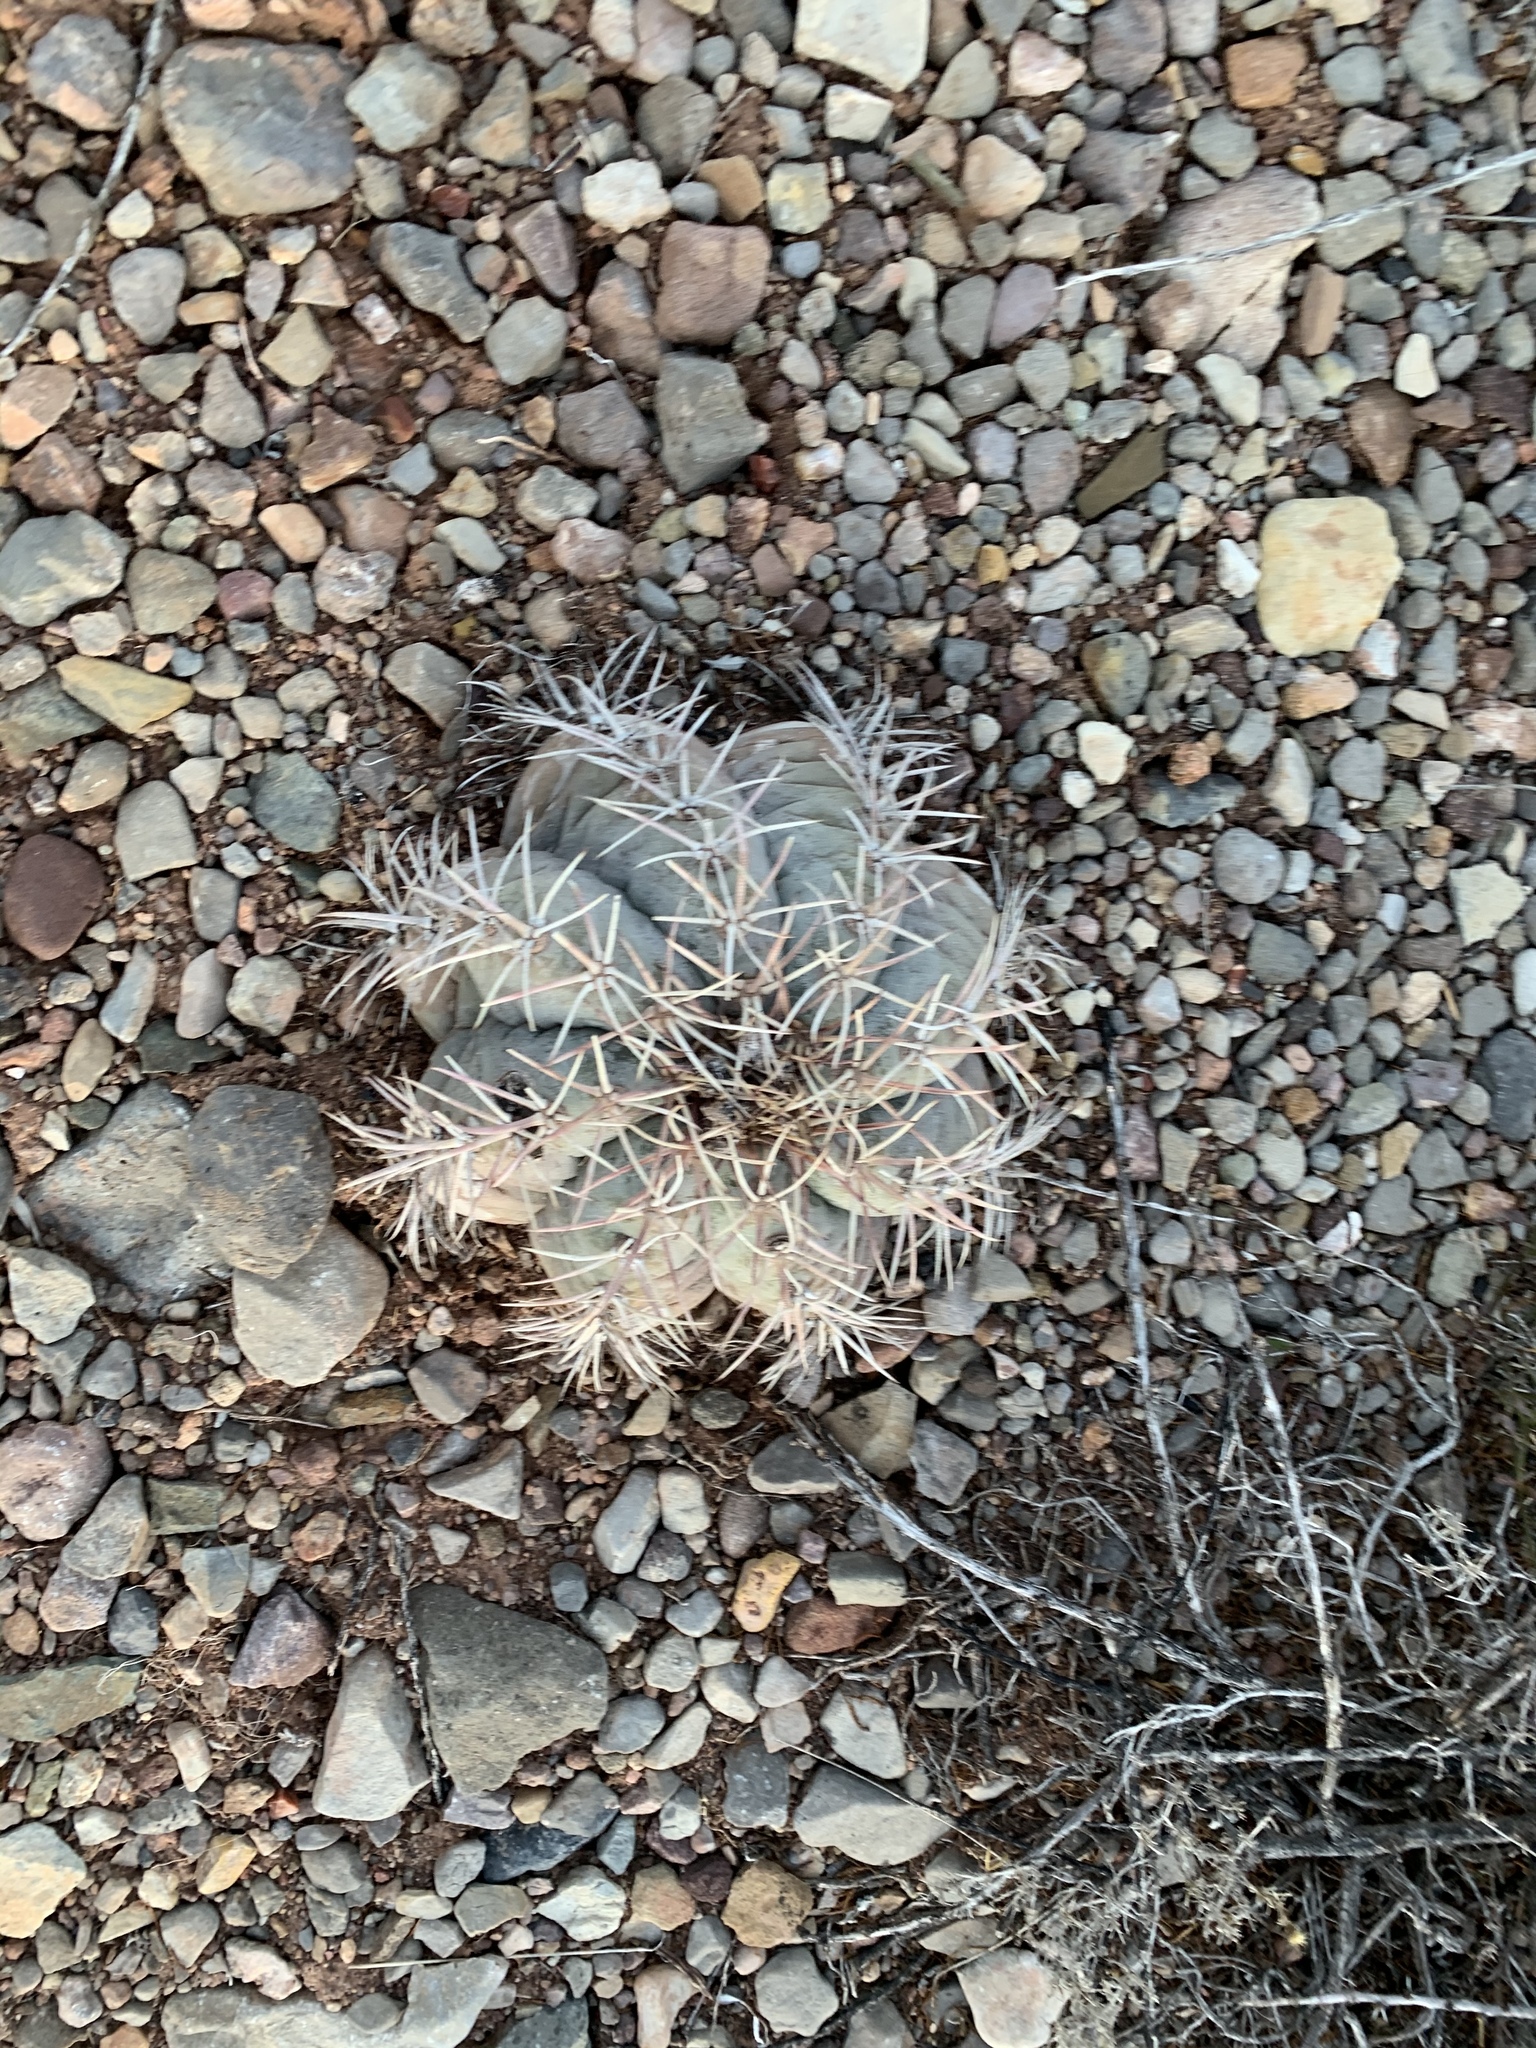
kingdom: Plantae
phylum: Tracheophyta
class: Magnoliopsida
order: Caryophyllales
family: Cactaceae
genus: Echinocactus
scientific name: Echinocactus horizonthalonius
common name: Devilshead
